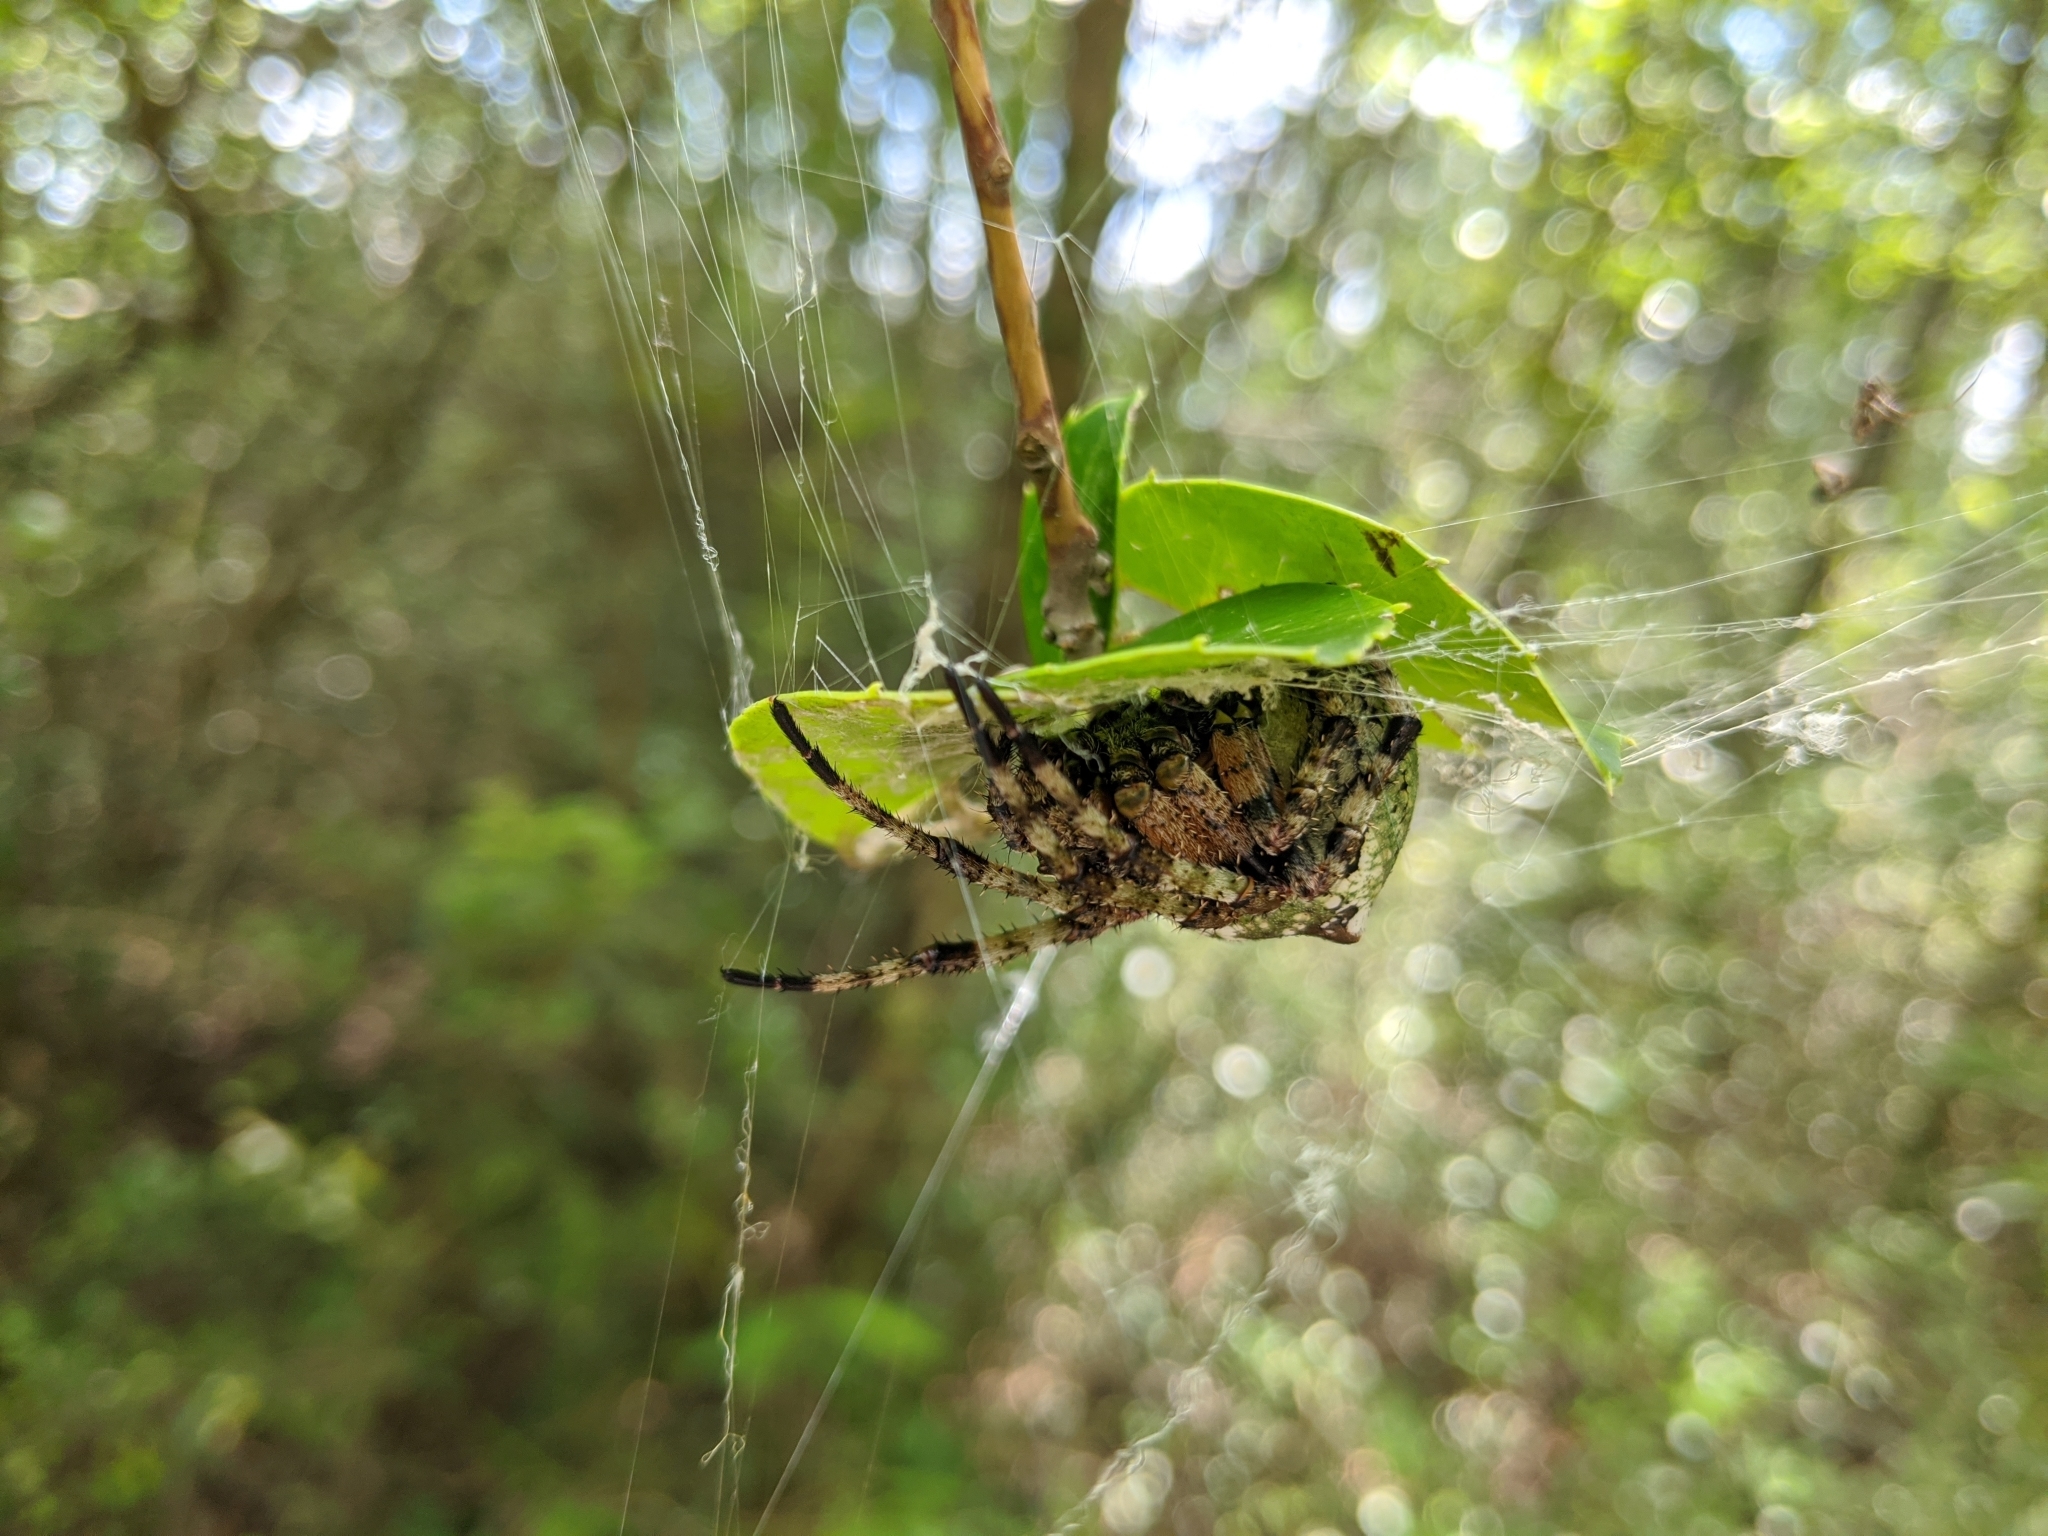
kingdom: Animalia
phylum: Arthropoda
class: Arachnida
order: Araneae
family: Araneidae
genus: Araneus
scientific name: Araneus bicentenarius
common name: Giant lichen orbweaver
